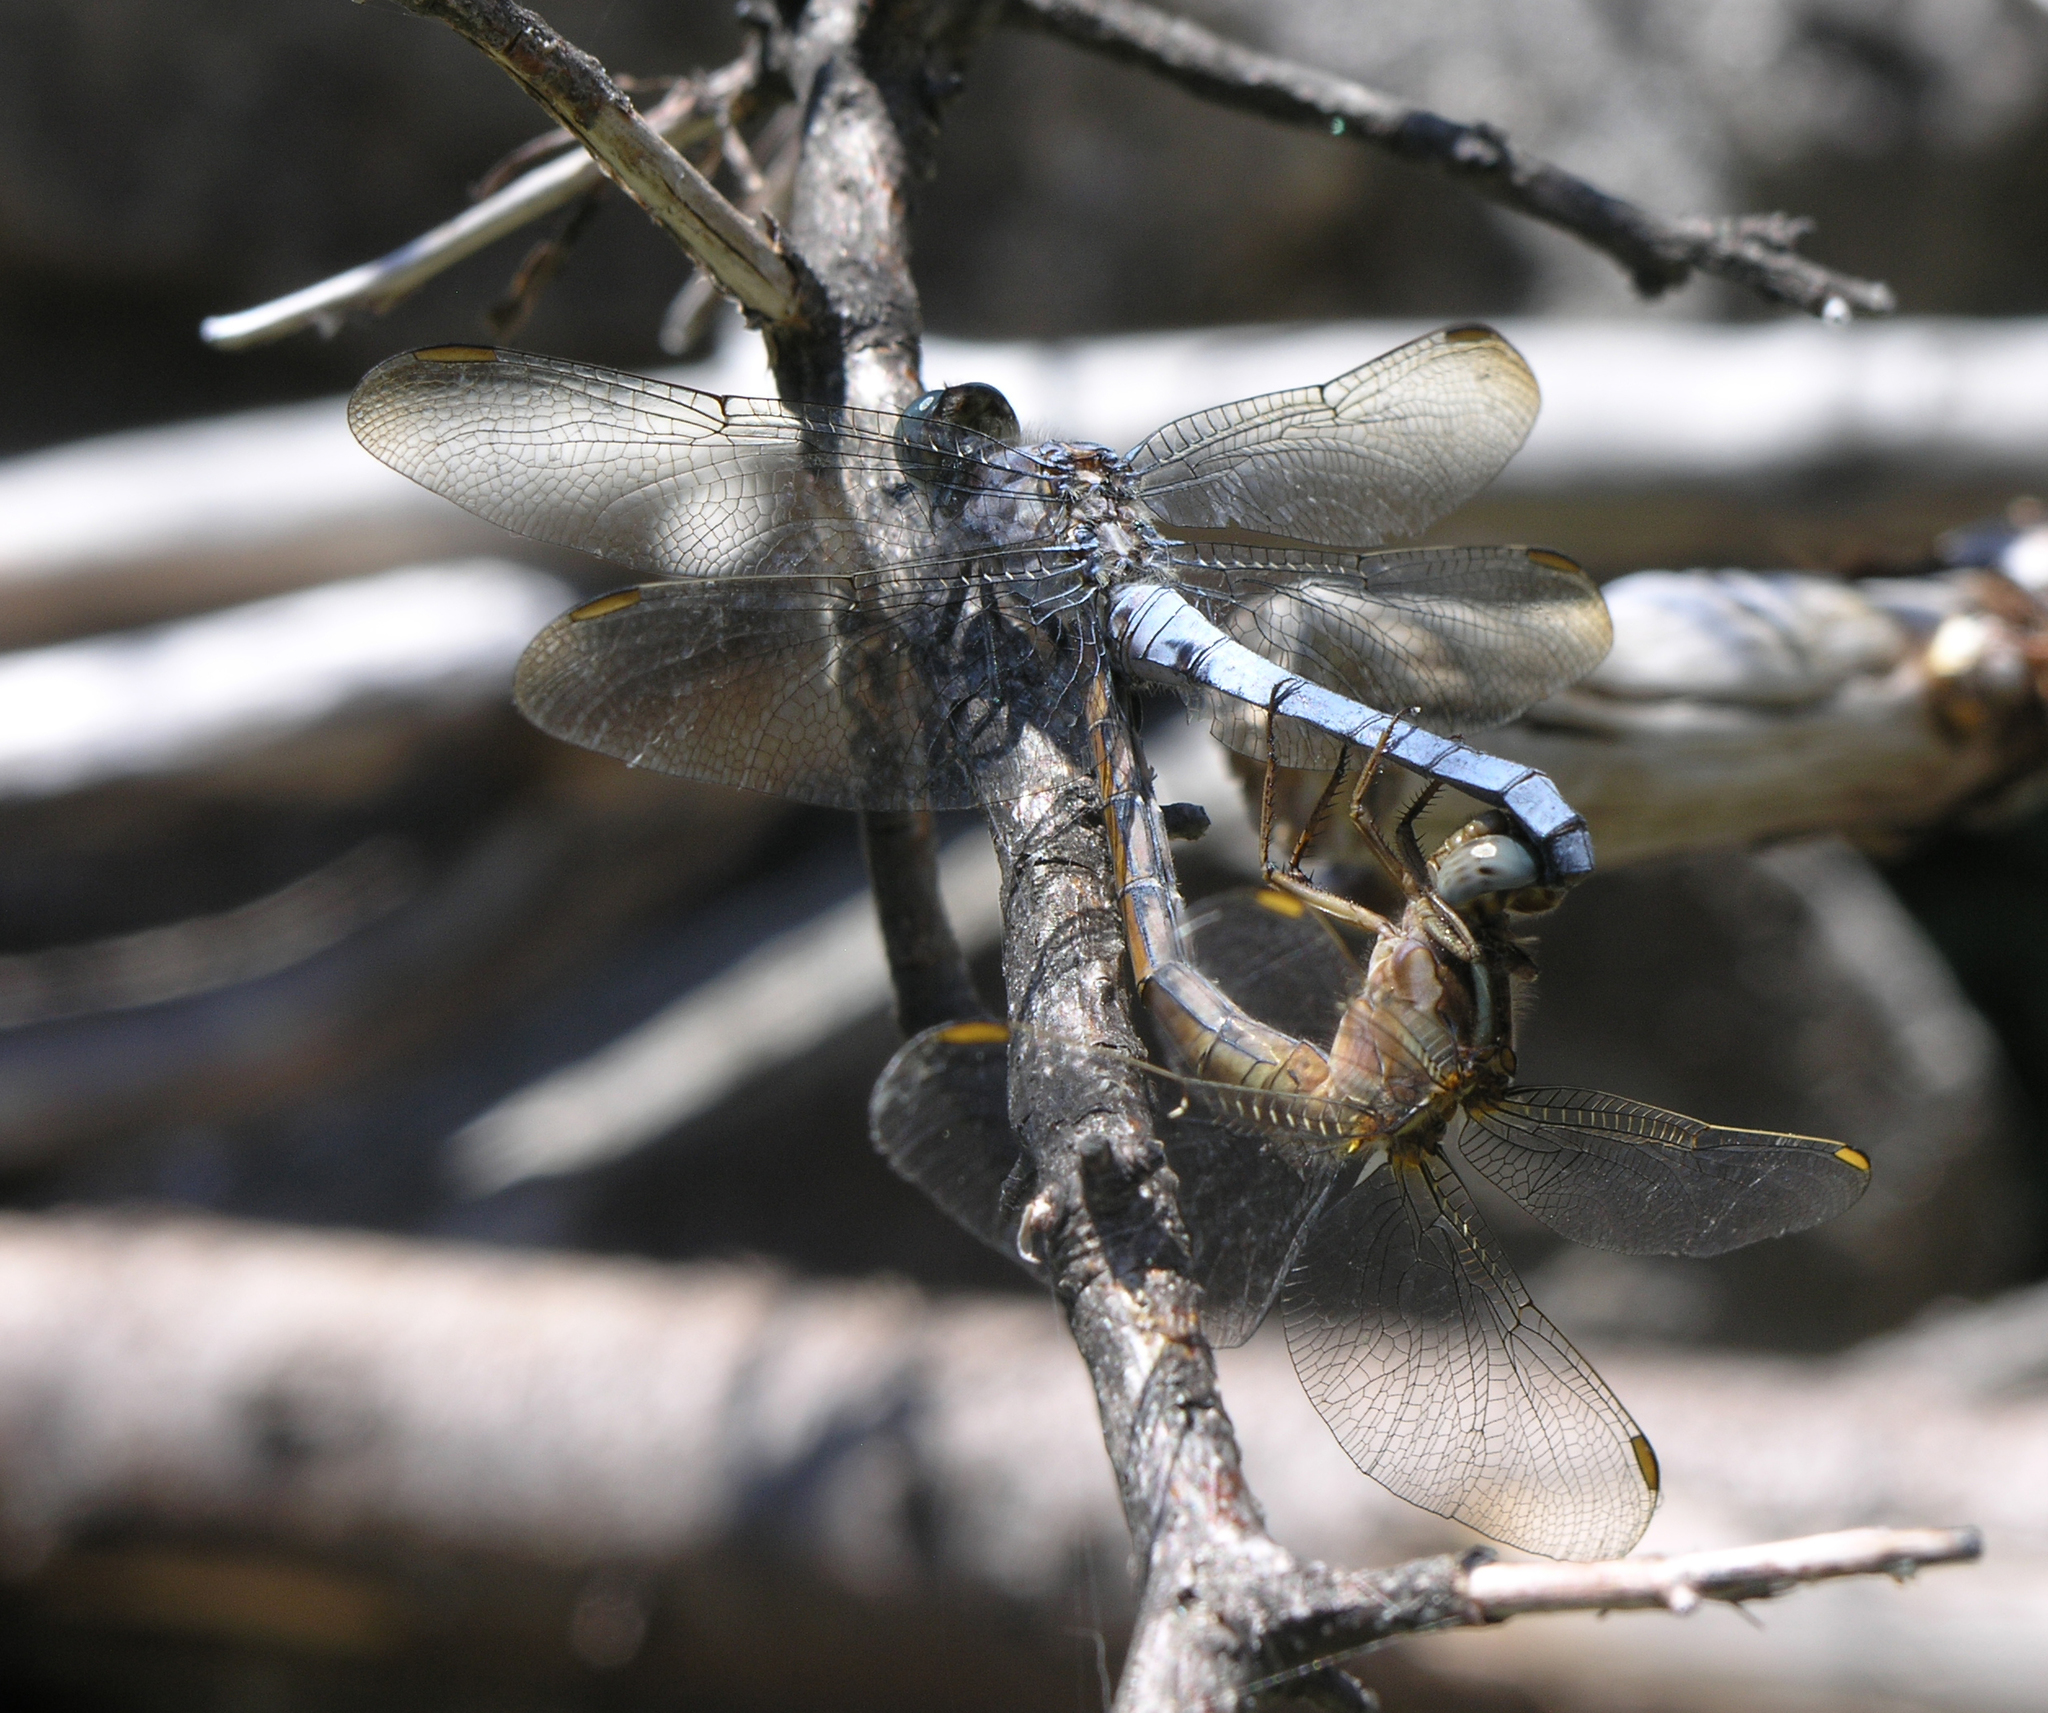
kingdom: Animalia
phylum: Arthropoda
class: Insecta
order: Odonata
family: Libellulidae
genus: Orthetrum
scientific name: Orthetrum coerulescens
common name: Keeled skimmer
